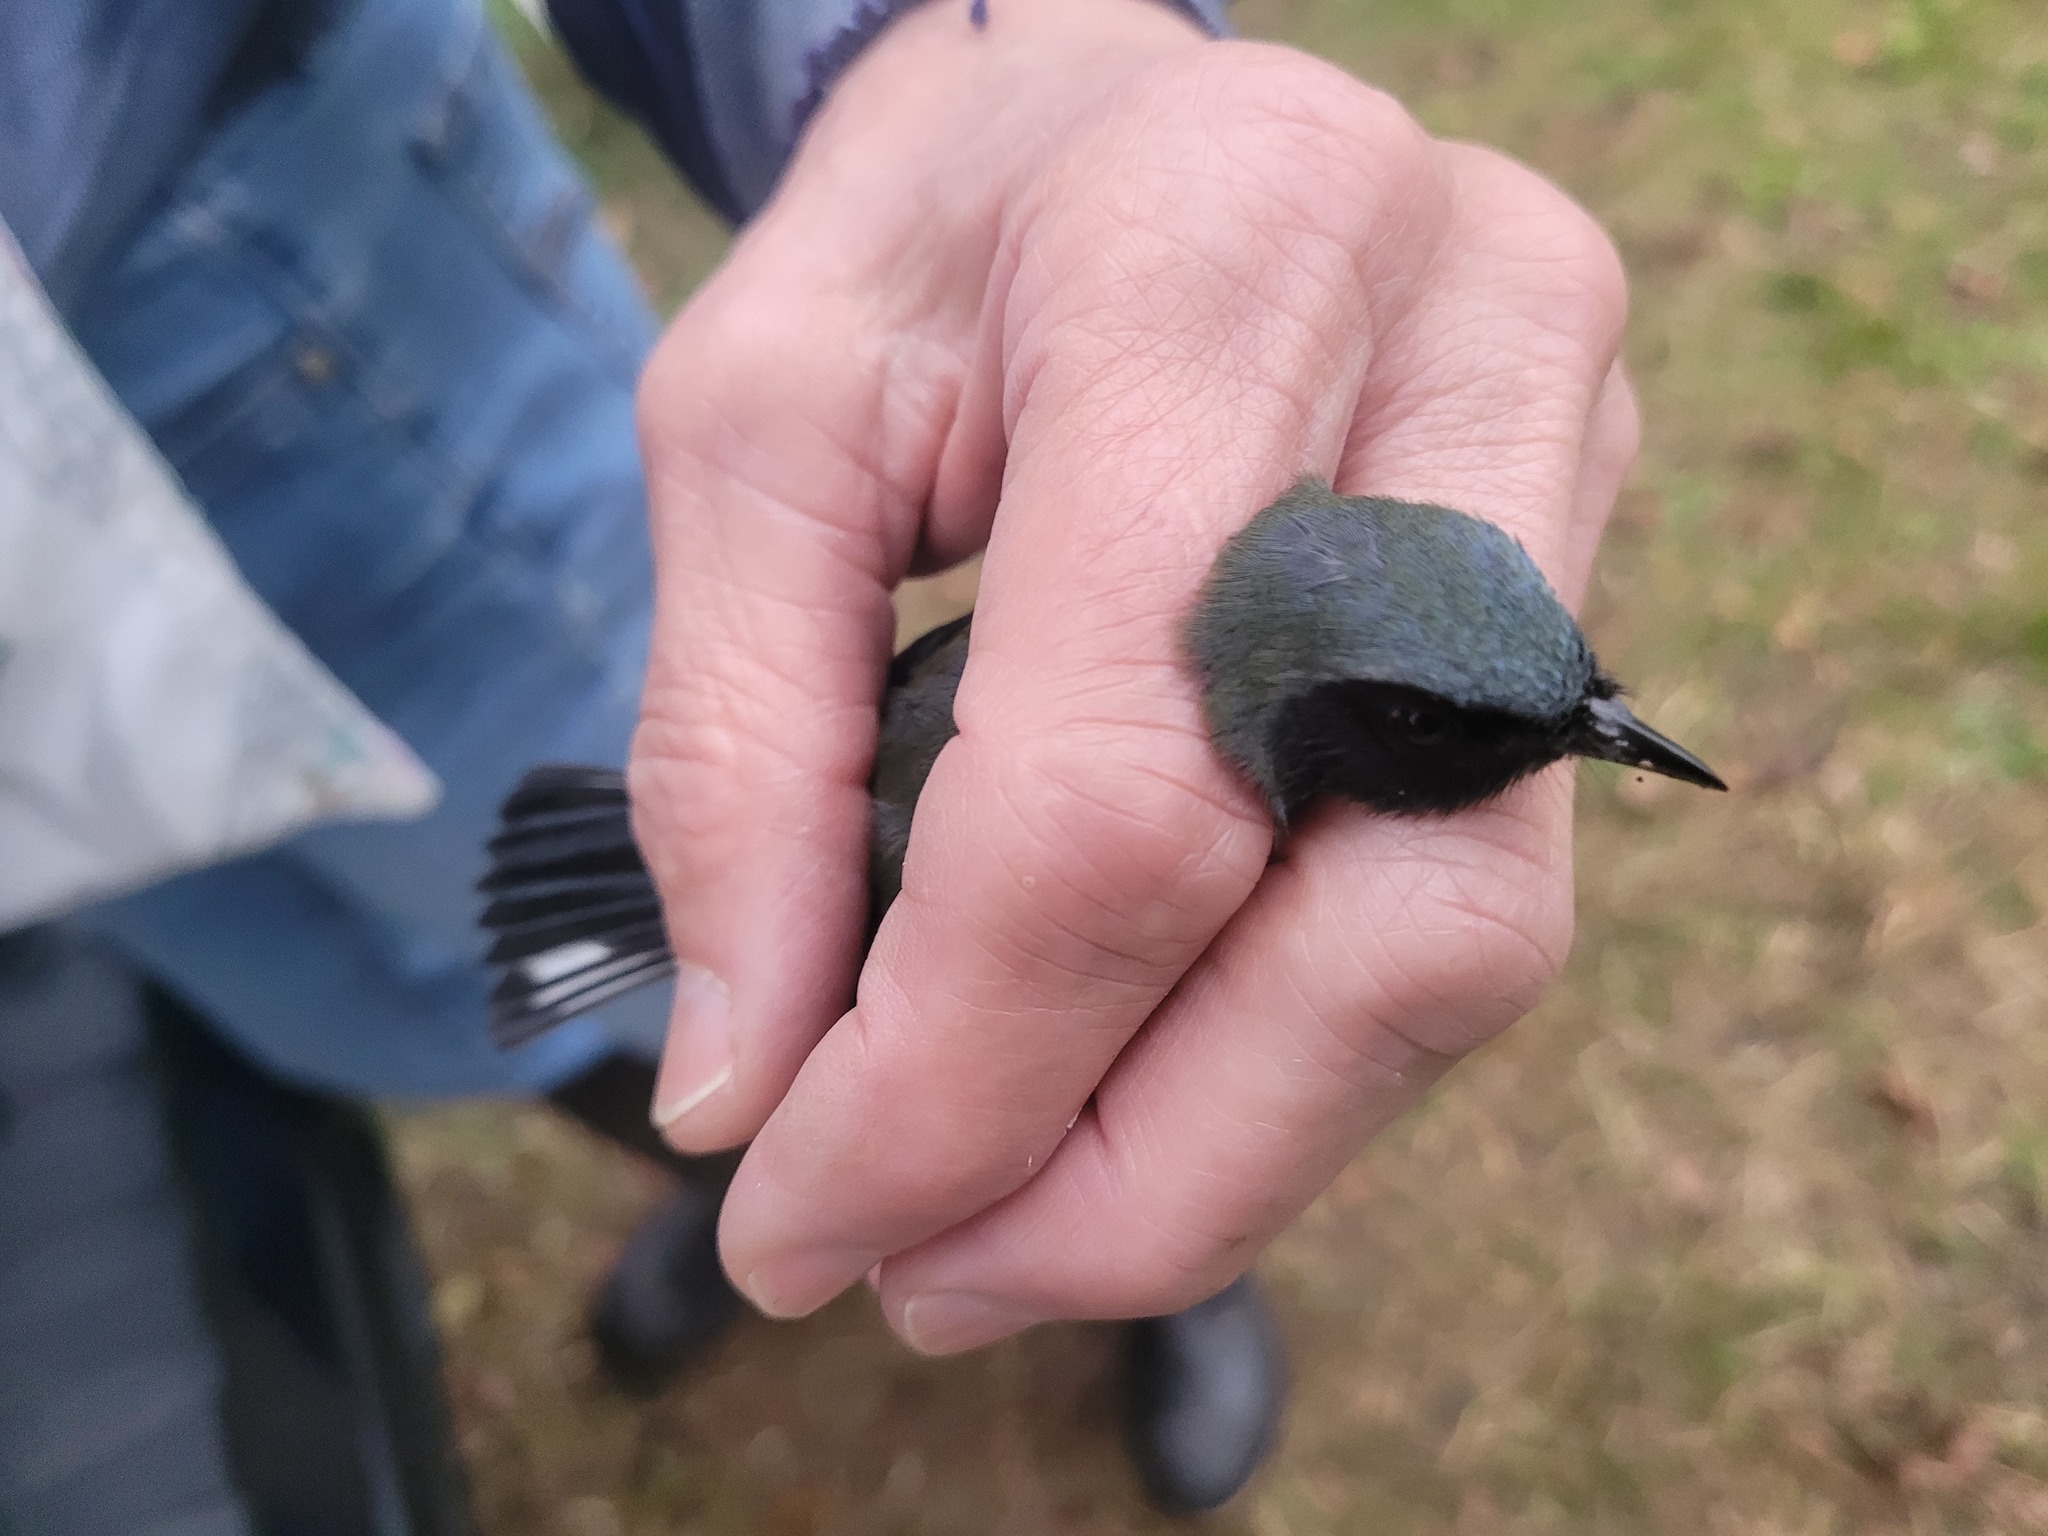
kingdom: Animalia
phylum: Chordata
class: Aves
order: Passeriformes
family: Parulidae
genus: Setophaga
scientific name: Setophaga caerulescens
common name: Black-throated blue warbler
